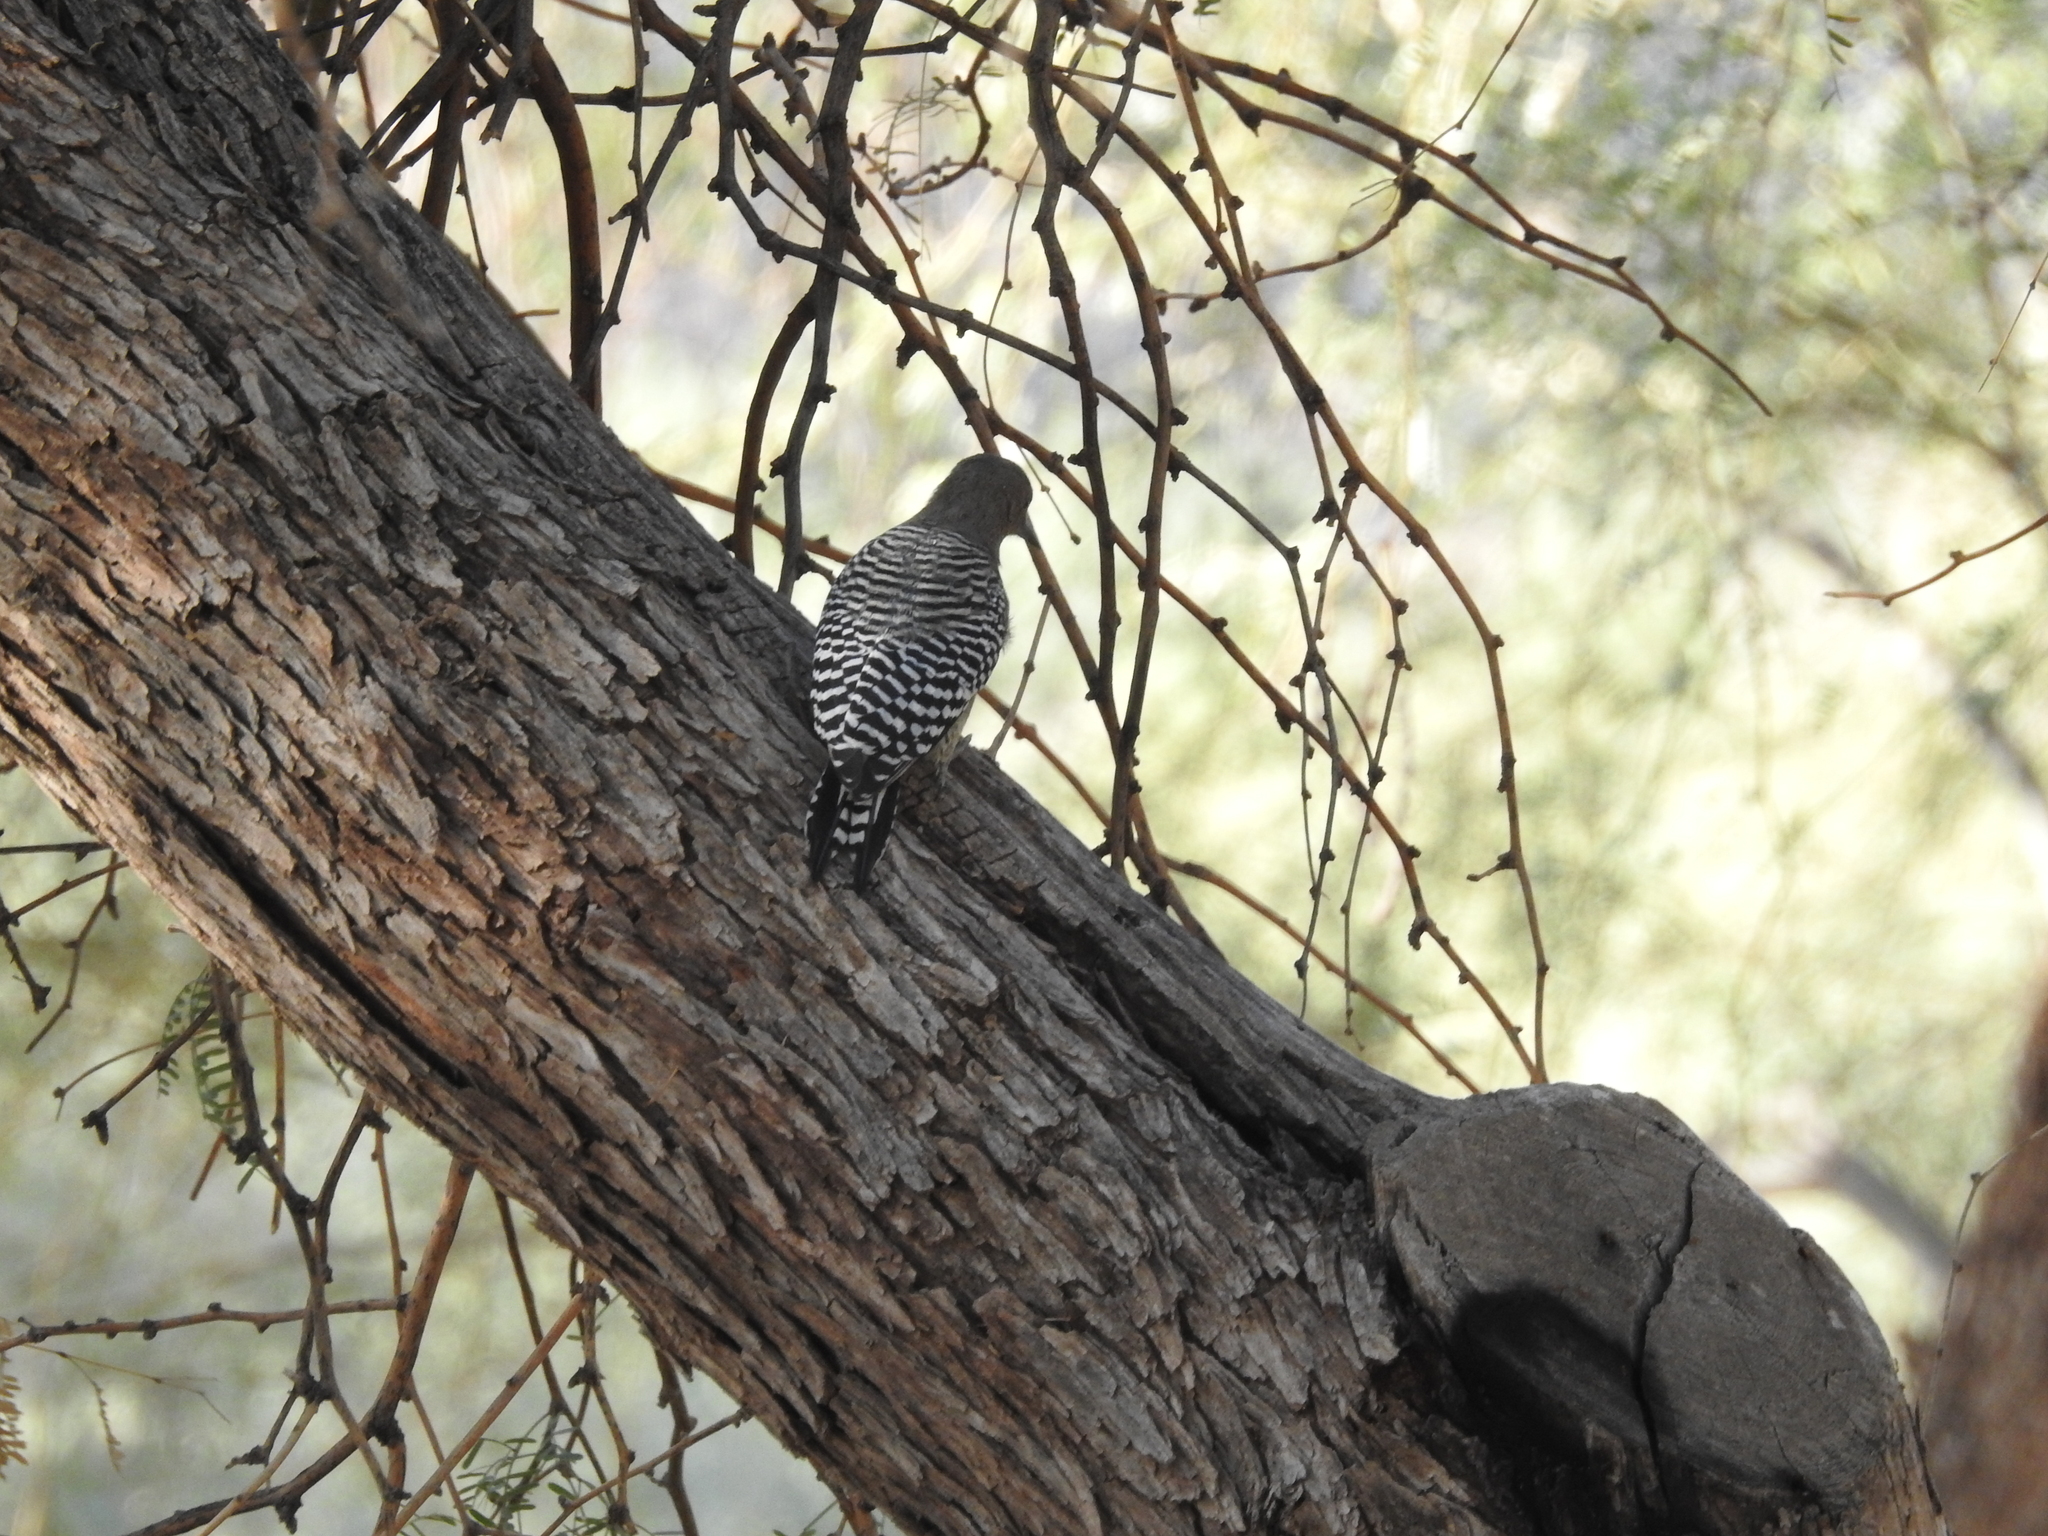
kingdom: Animalia
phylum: Chordata
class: Aves
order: Piciformes
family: Picidae
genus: Melanerpes
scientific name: Melanerpes uropygialis
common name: Gila woodpecker
